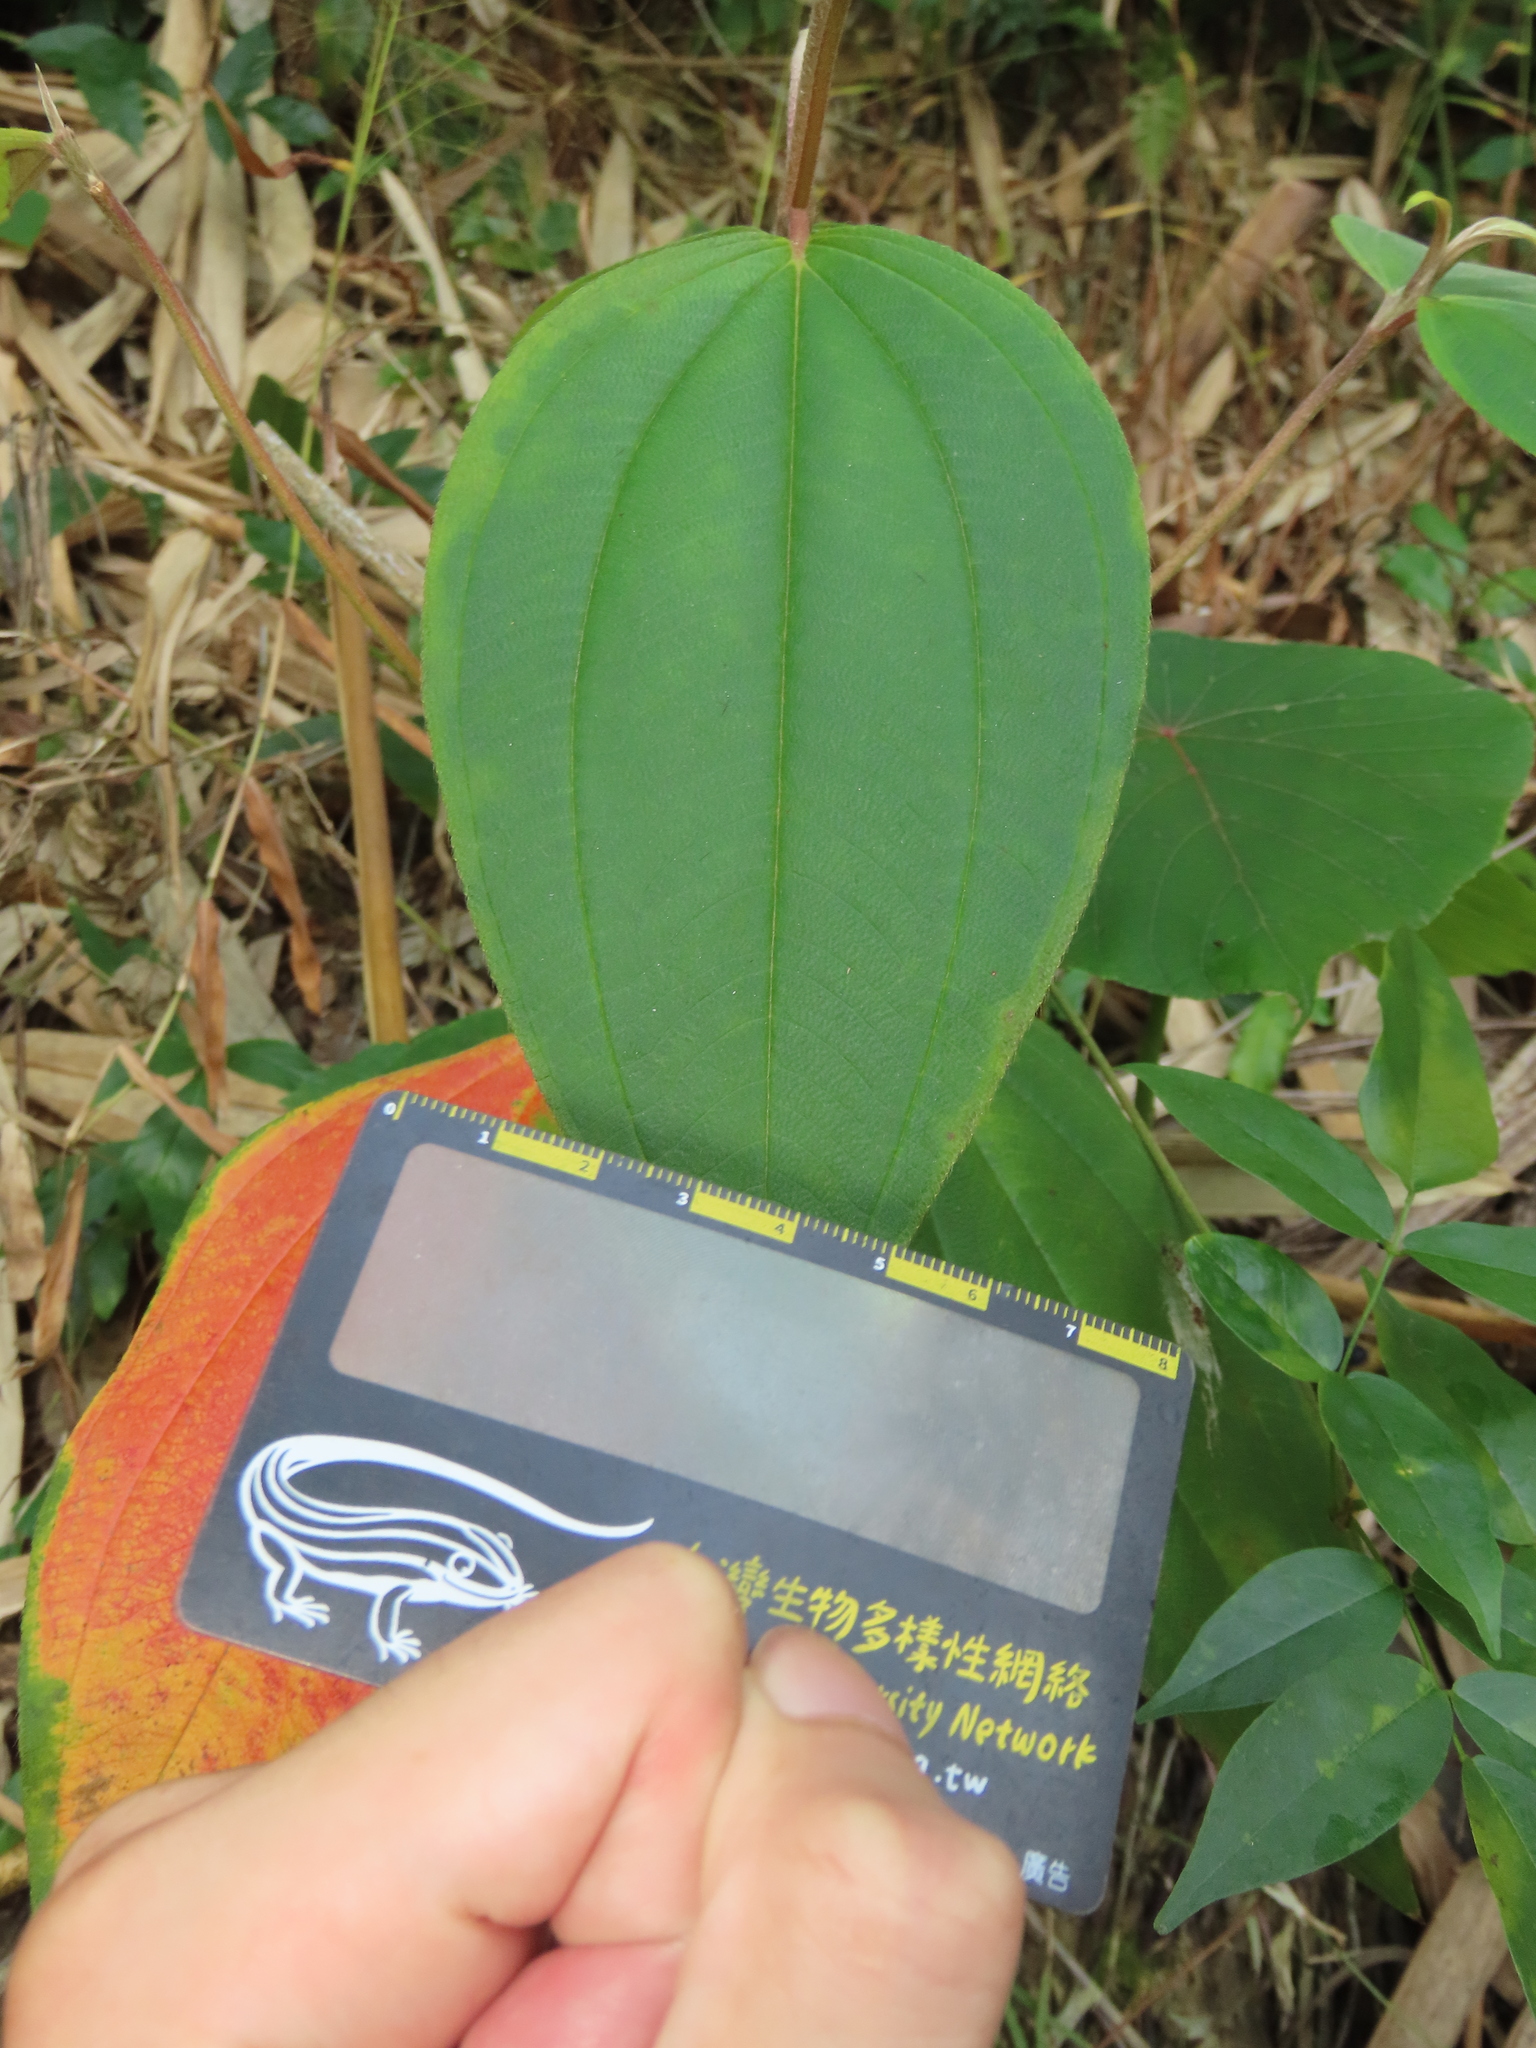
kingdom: Plantae
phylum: Tracheophyta
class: Magnoliopsida
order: Myrtales
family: Melastomataceae
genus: Melastoma
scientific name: Melastoma malabathricum
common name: Indian-rhododendron
